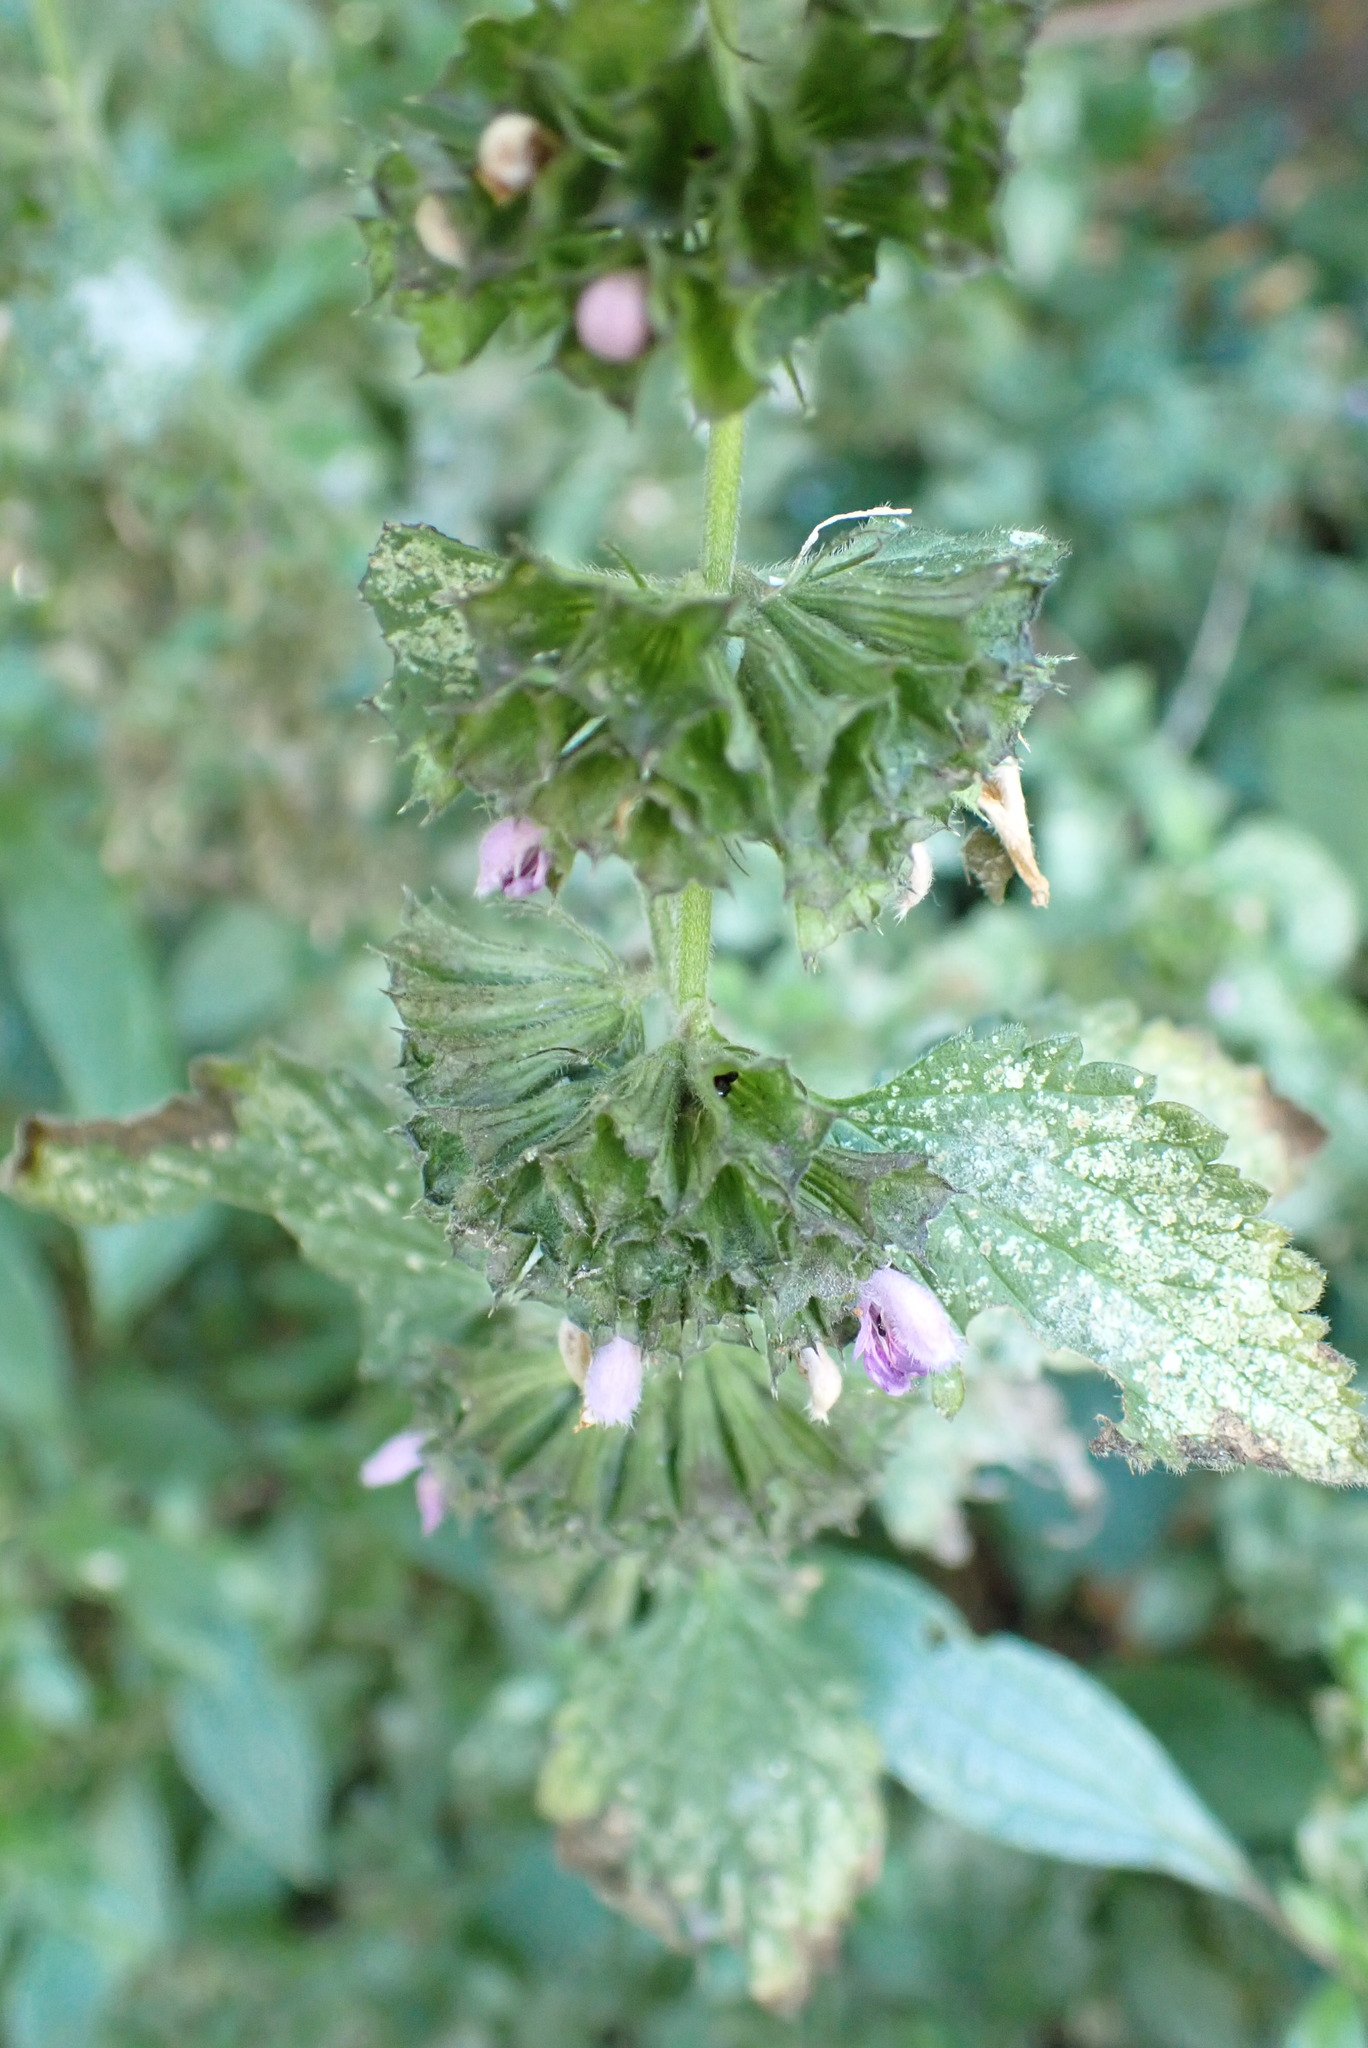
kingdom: Plantae
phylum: Tracheophyta
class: Magnoliopsida
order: Lamiales
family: Lamiaceae
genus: Ballota
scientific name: Ballota nigra
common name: Black horehound
